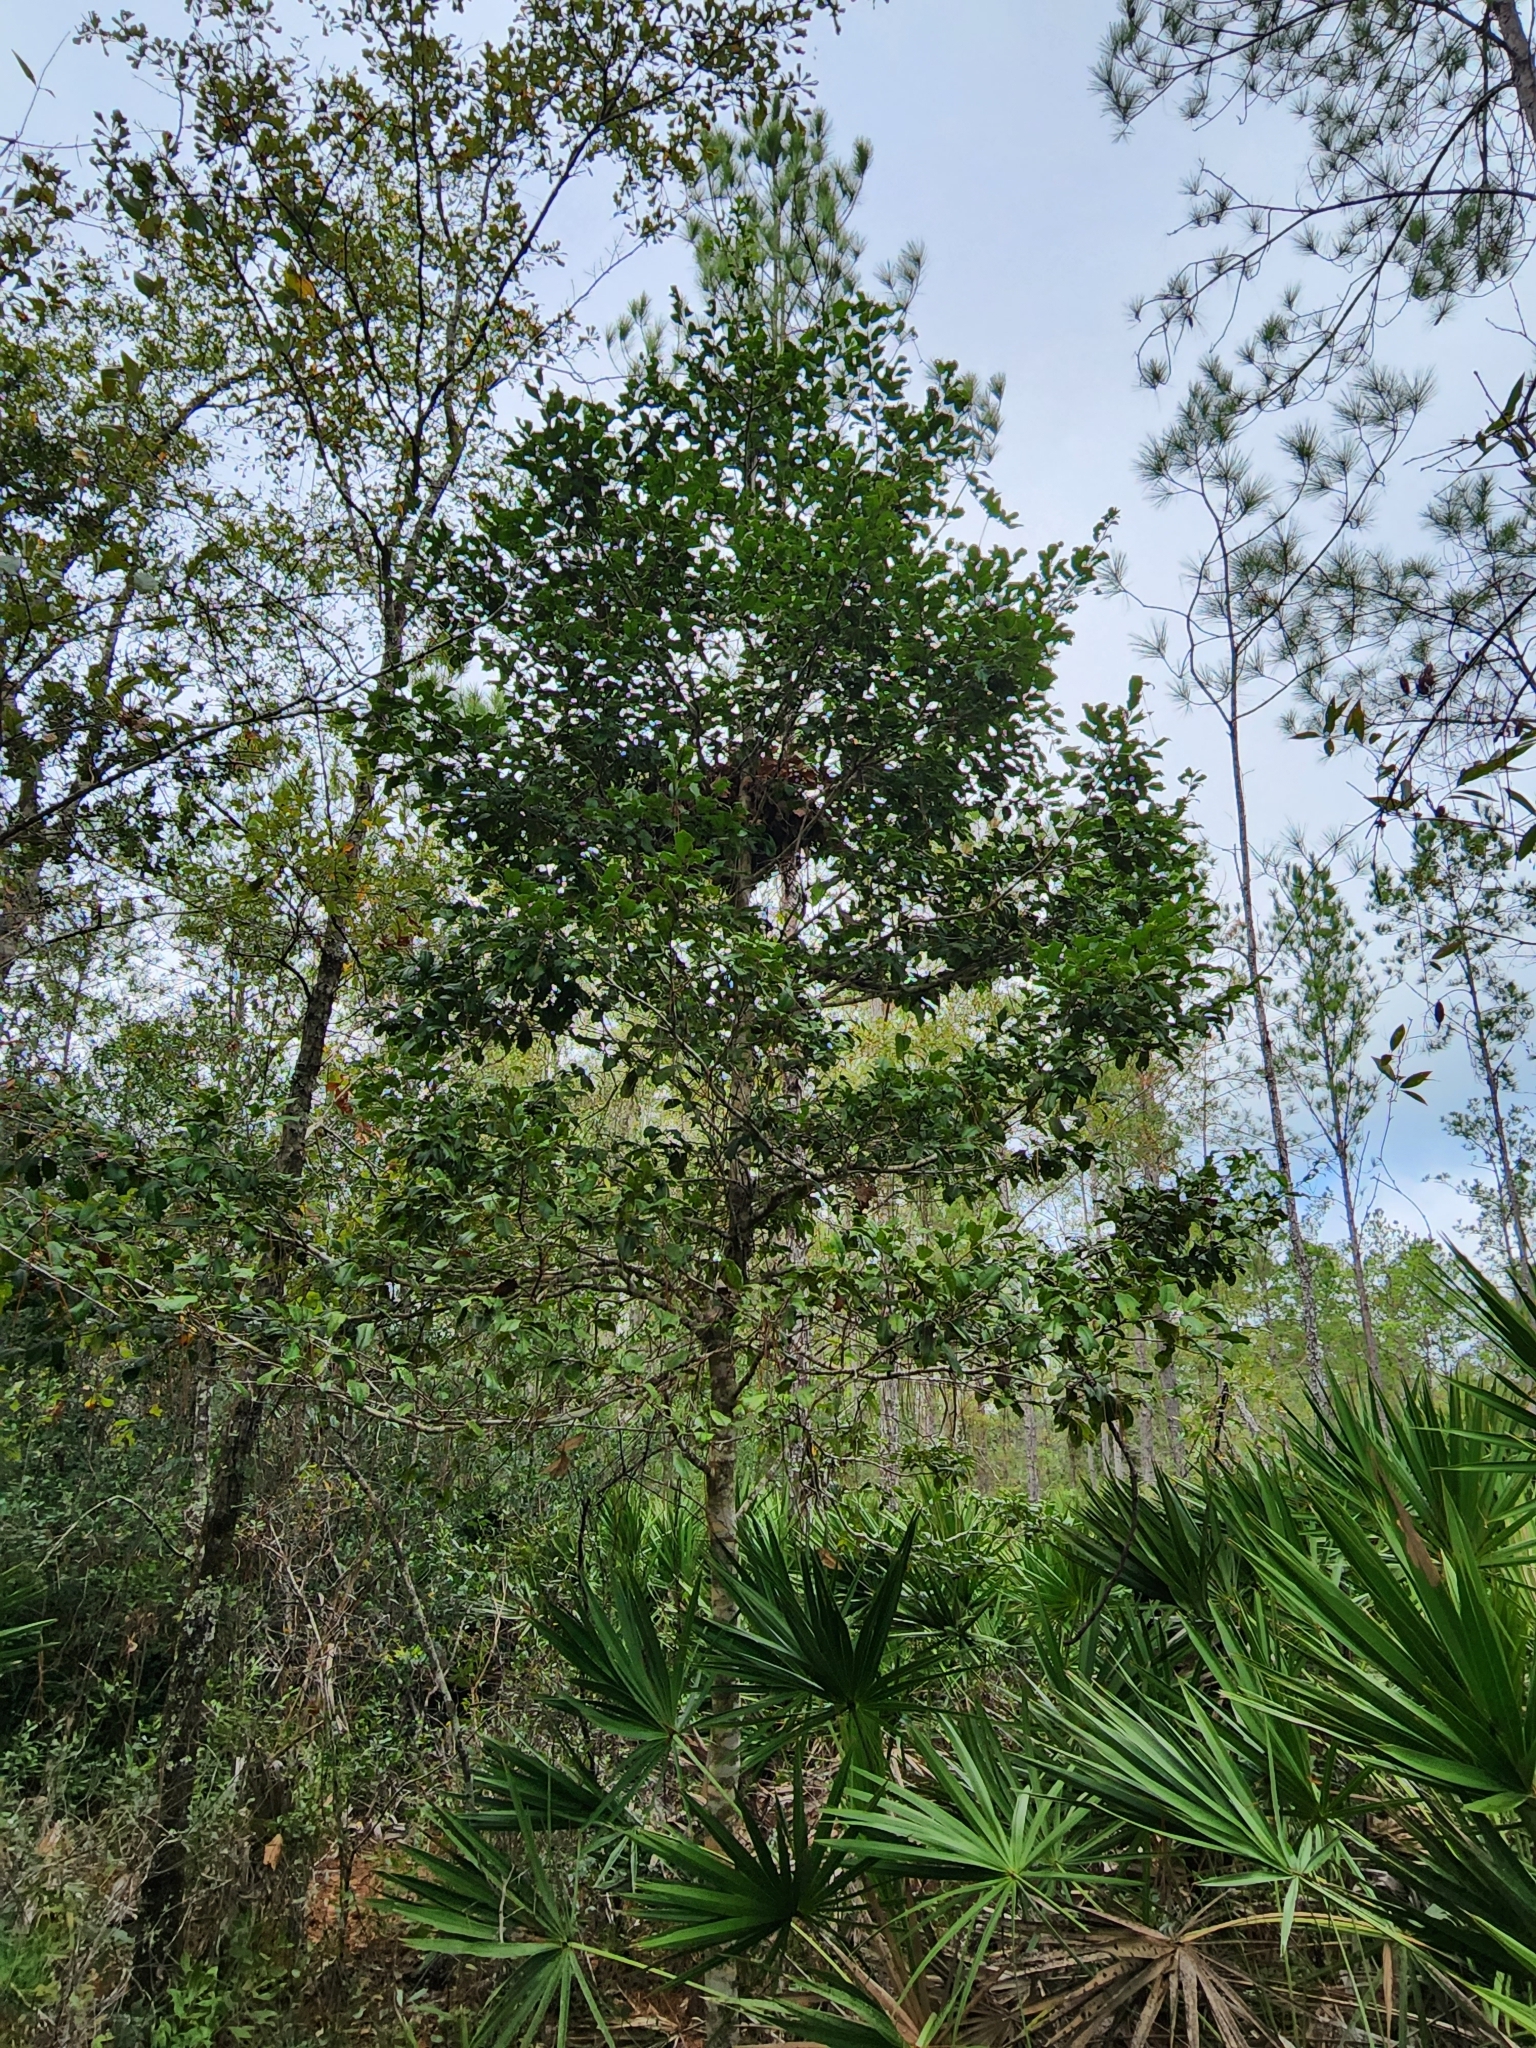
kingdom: Plantae
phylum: Tracheophyta
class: Magnoliopsida
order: Aquifoliales
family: Aquifoliaceae
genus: Ilex
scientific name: Ilex opaca
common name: American holly
